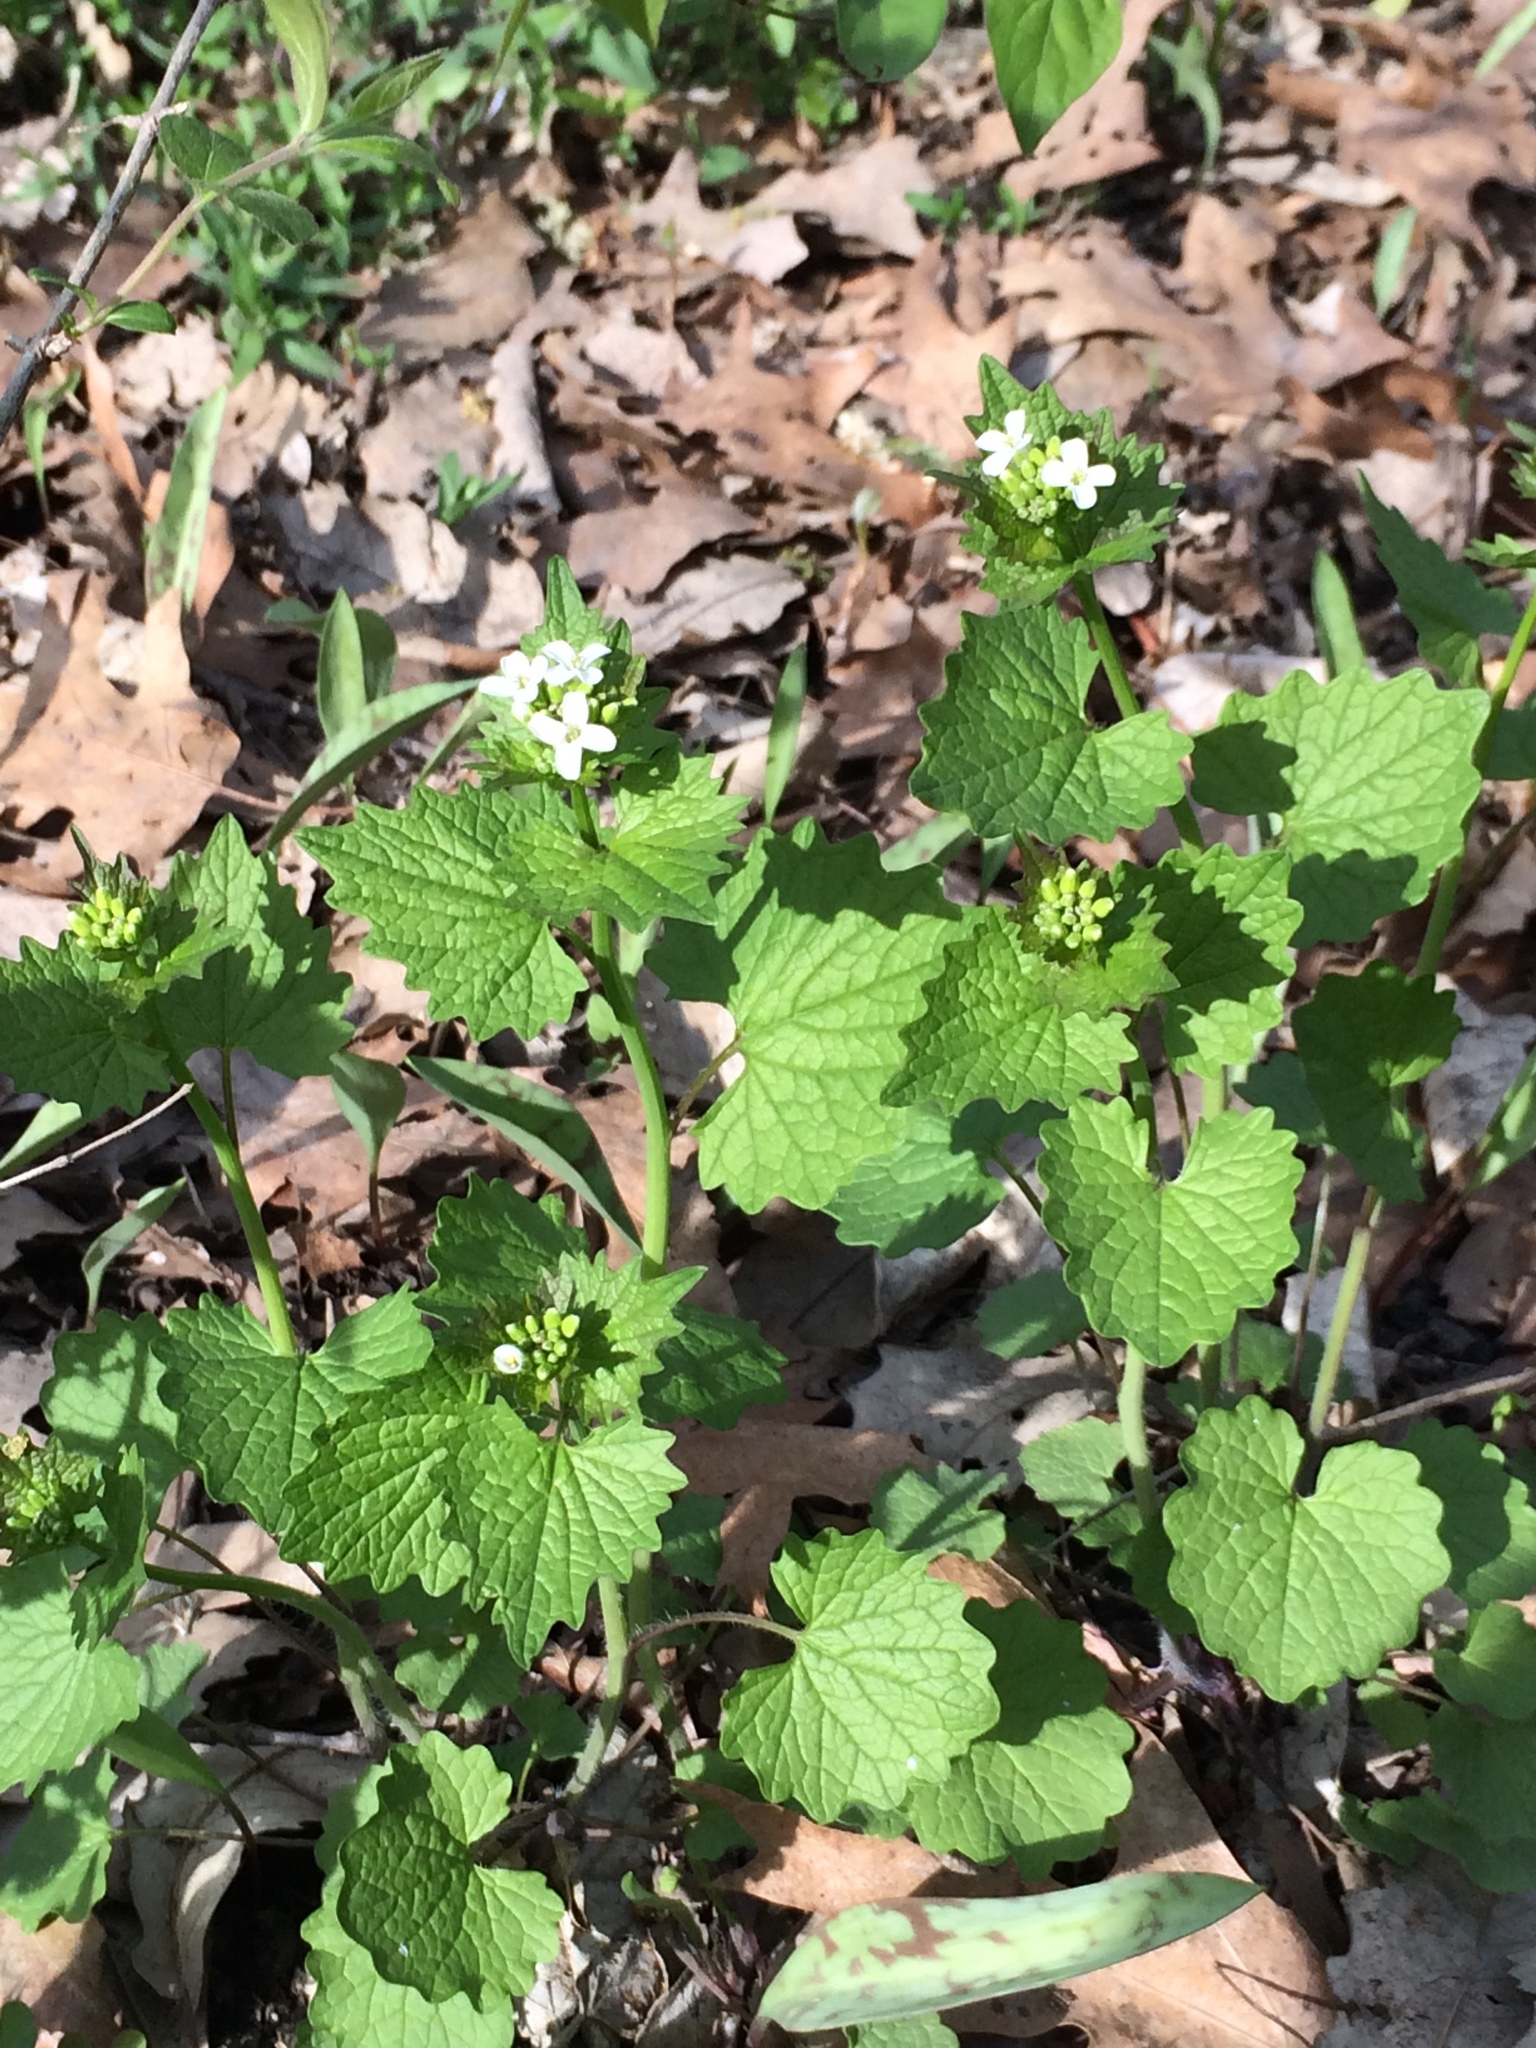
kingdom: Plantae
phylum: Tracheophyta
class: Magnoliopsida
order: Brassicales
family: Brassicaceae
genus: Alliaria
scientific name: Alliaria petiolata
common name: Garlic mustard
